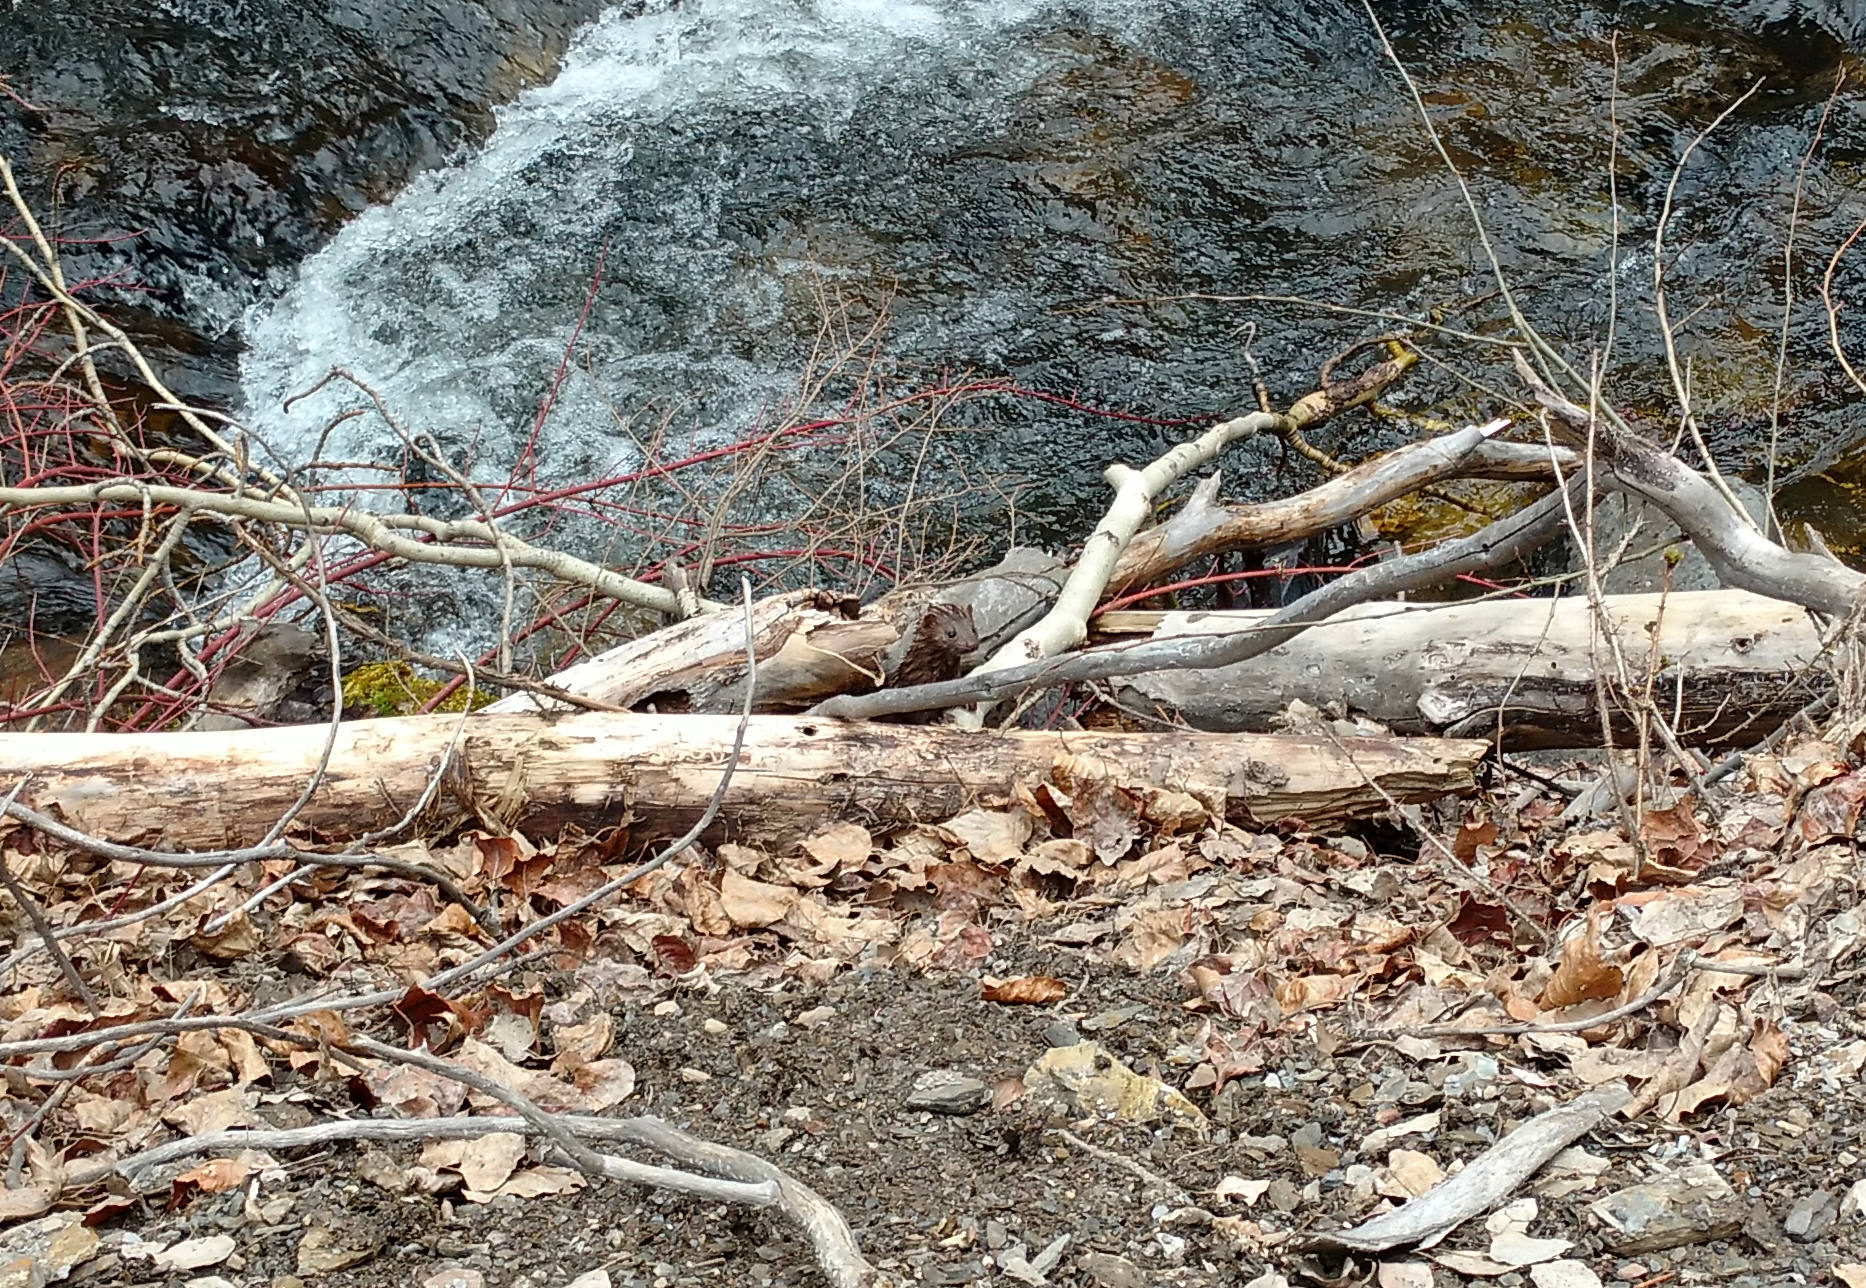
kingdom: Animalia
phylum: Chordata
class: Mammalia
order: Carnivora
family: Mustelidae
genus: Mustela
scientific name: Mustela
